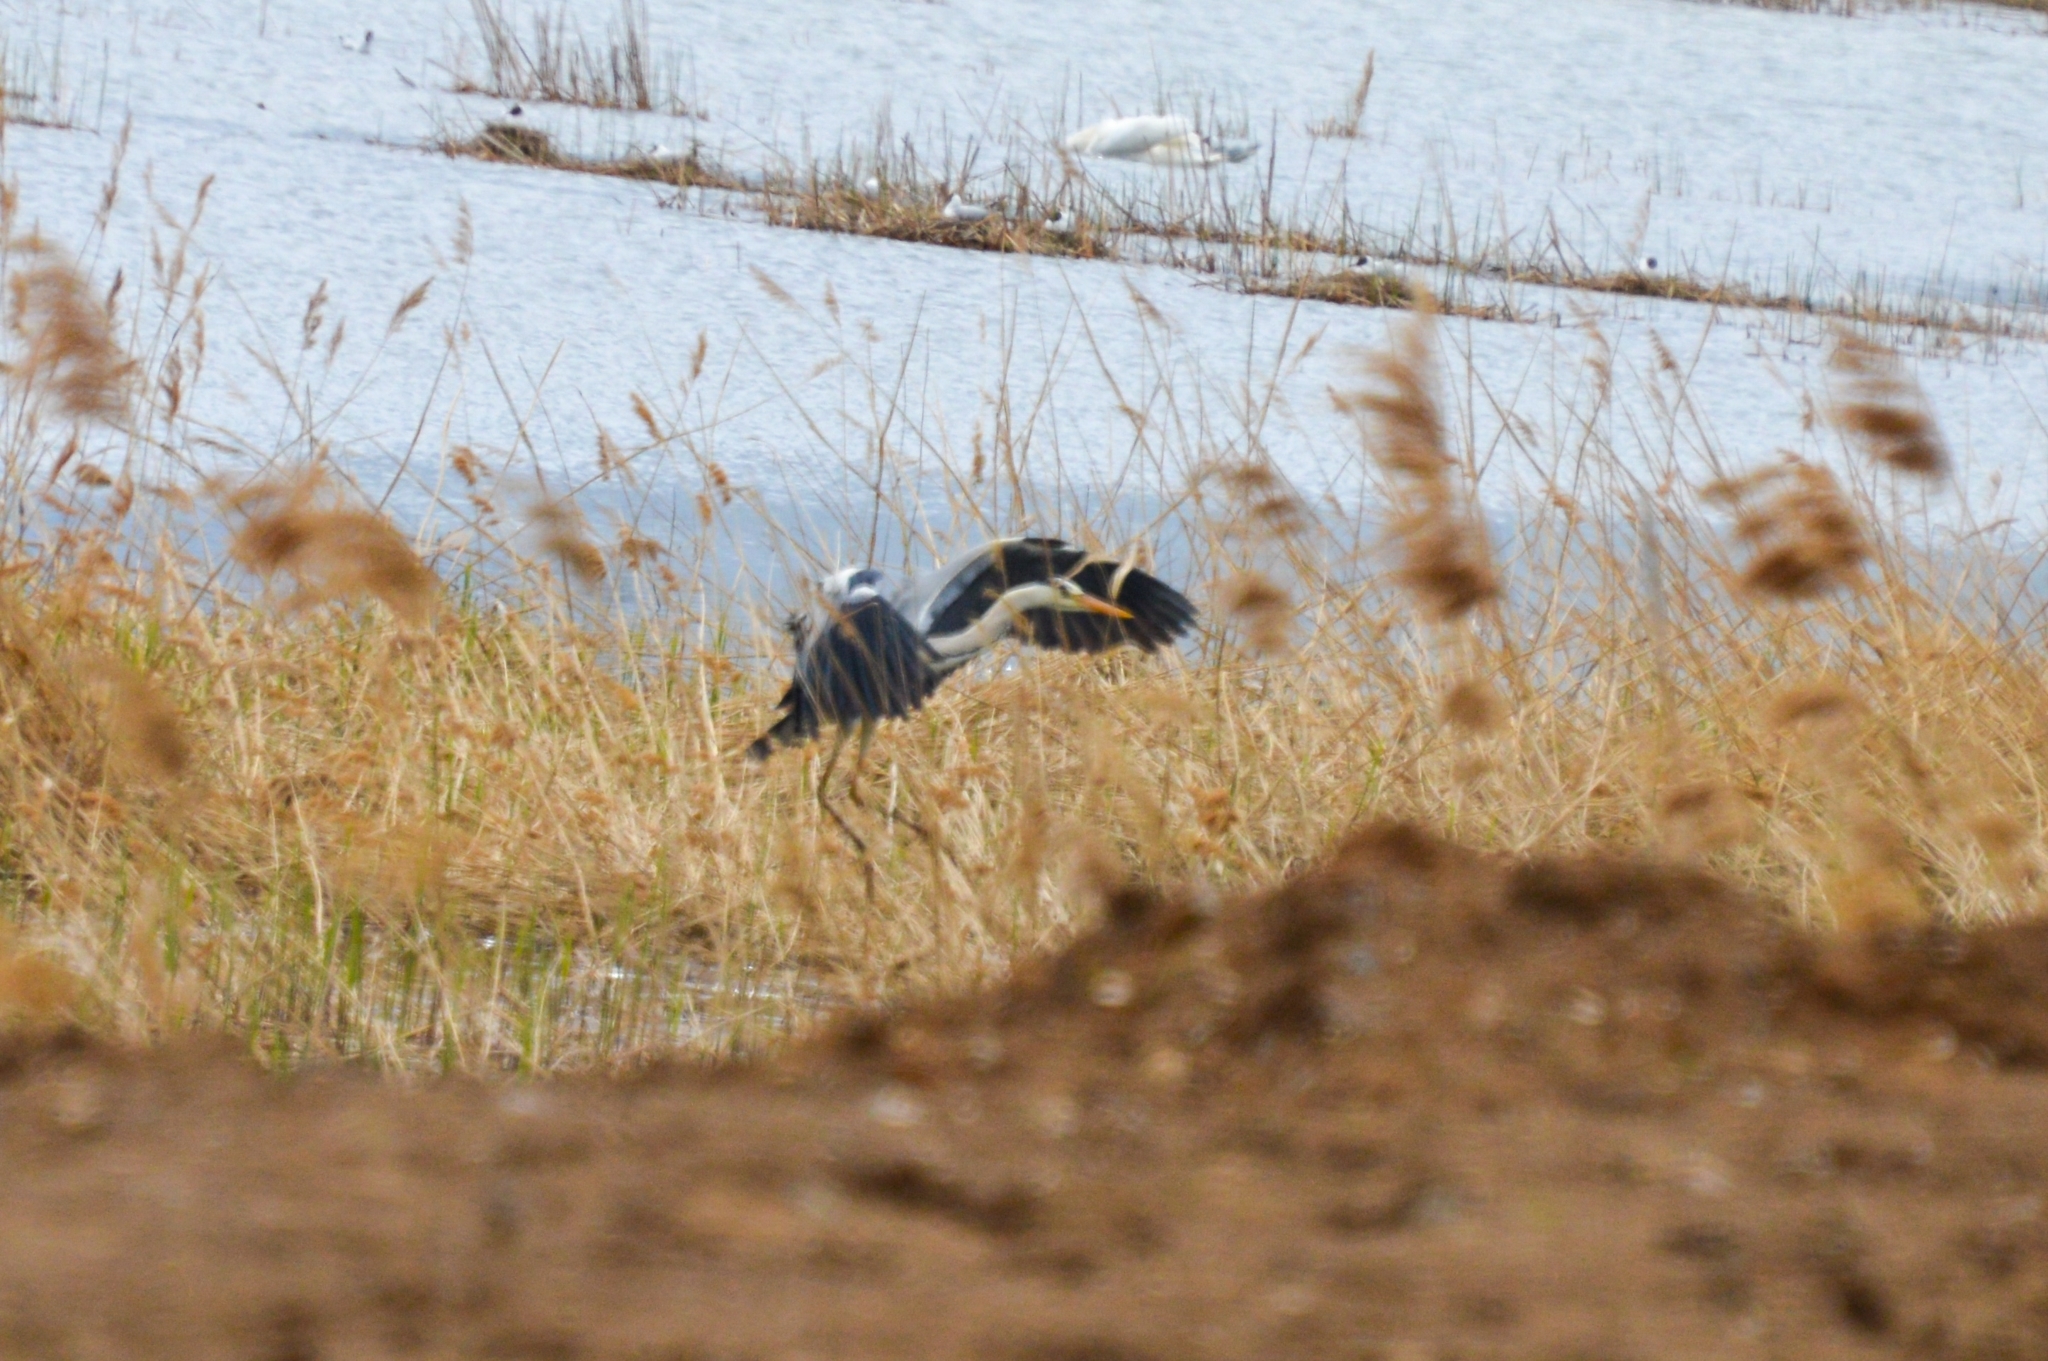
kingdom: Animalia
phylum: Chordata
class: Aves
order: Pelecaniformes
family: Ardeidae
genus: Ardea
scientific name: Ardea cinerea
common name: Grey heron
